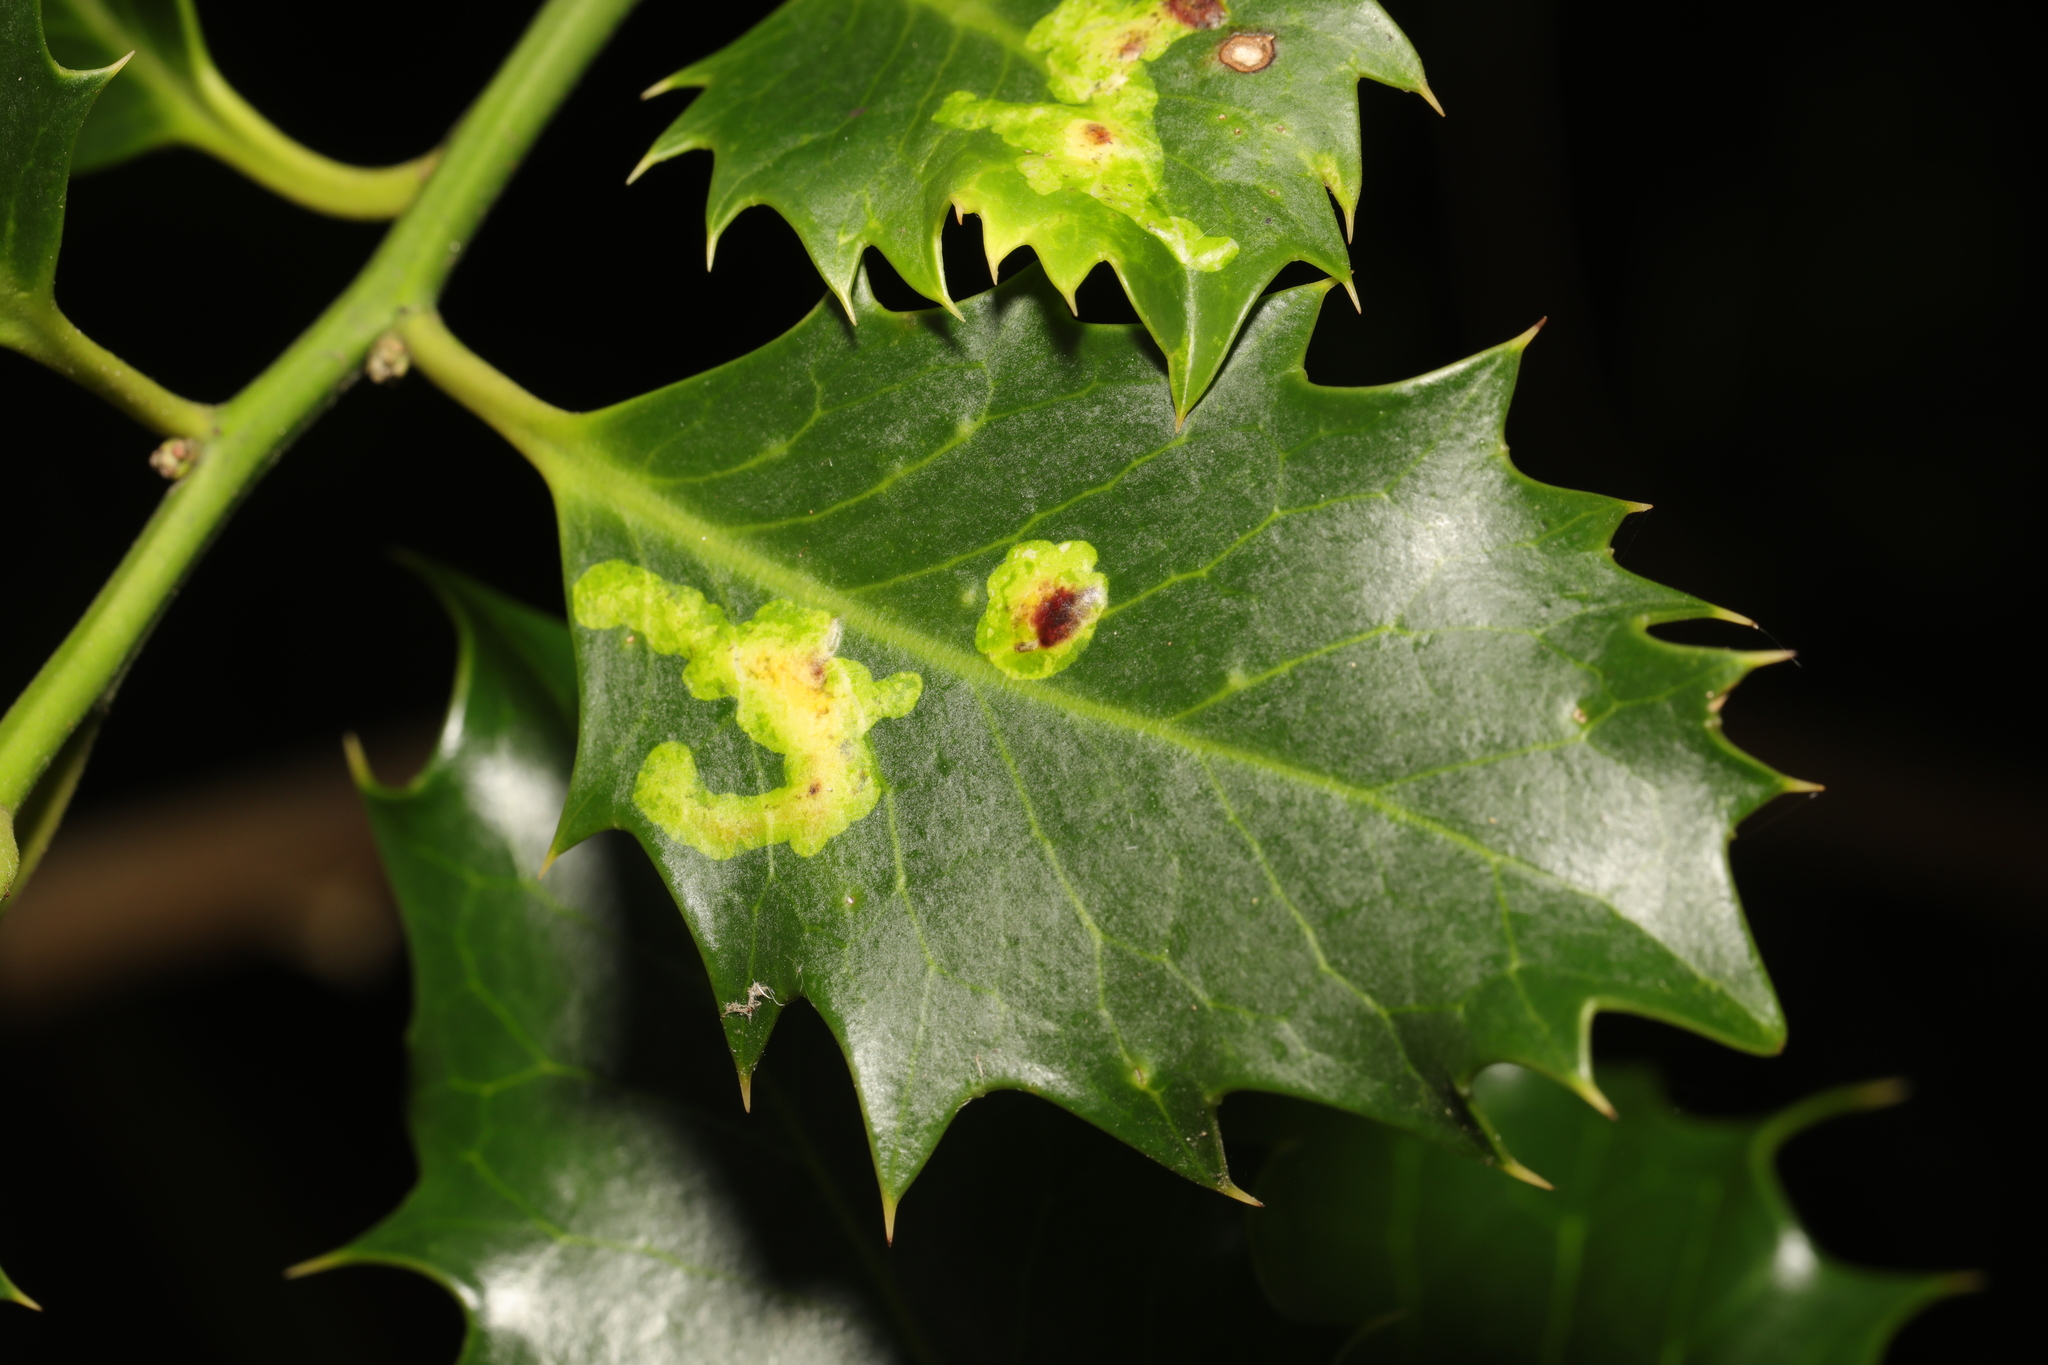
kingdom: Animalia
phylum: Arthropoda
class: Insecta
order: Diptera
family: Agromyzidae
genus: Phytomyza
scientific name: Phytomyza ilicis
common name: Holly leafminer
